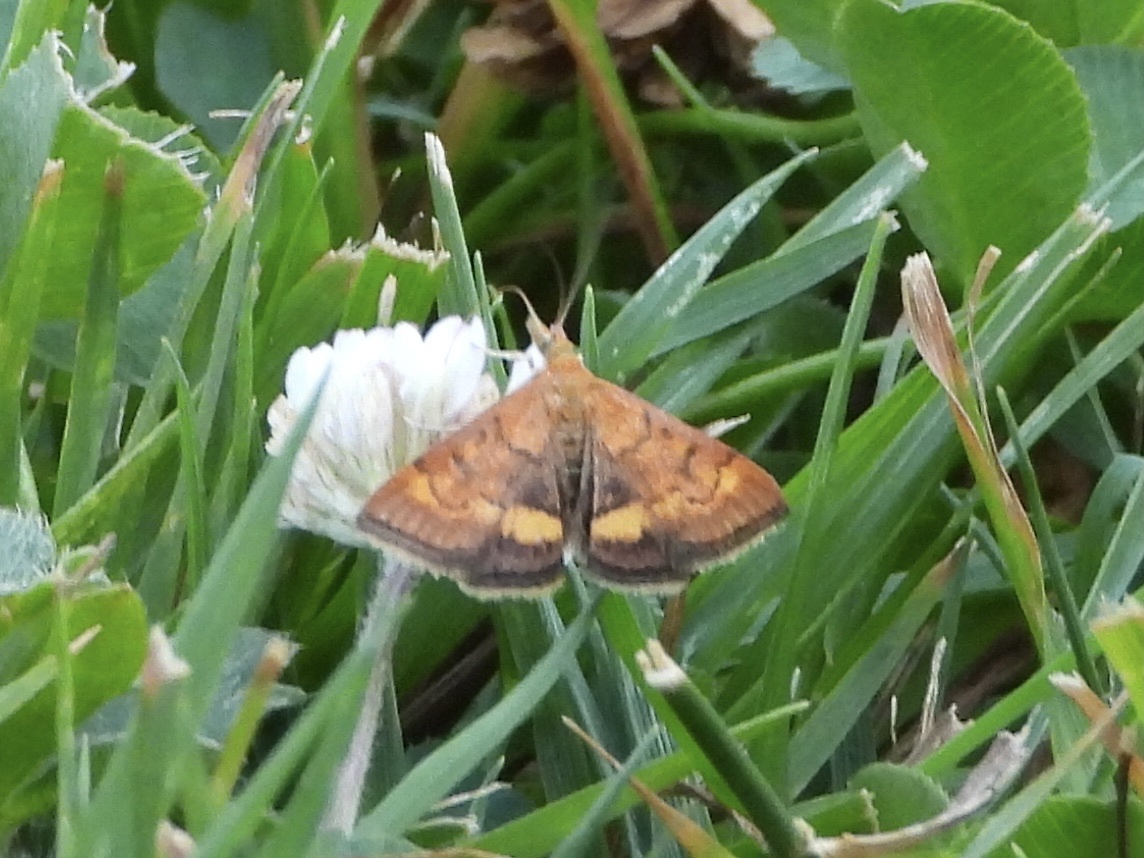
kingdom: Animalia
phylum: Arthropoda
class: Insecta
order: Lepidoptera
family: Crambidae
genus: Pyrausta
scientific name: Pyrausta californicalis
